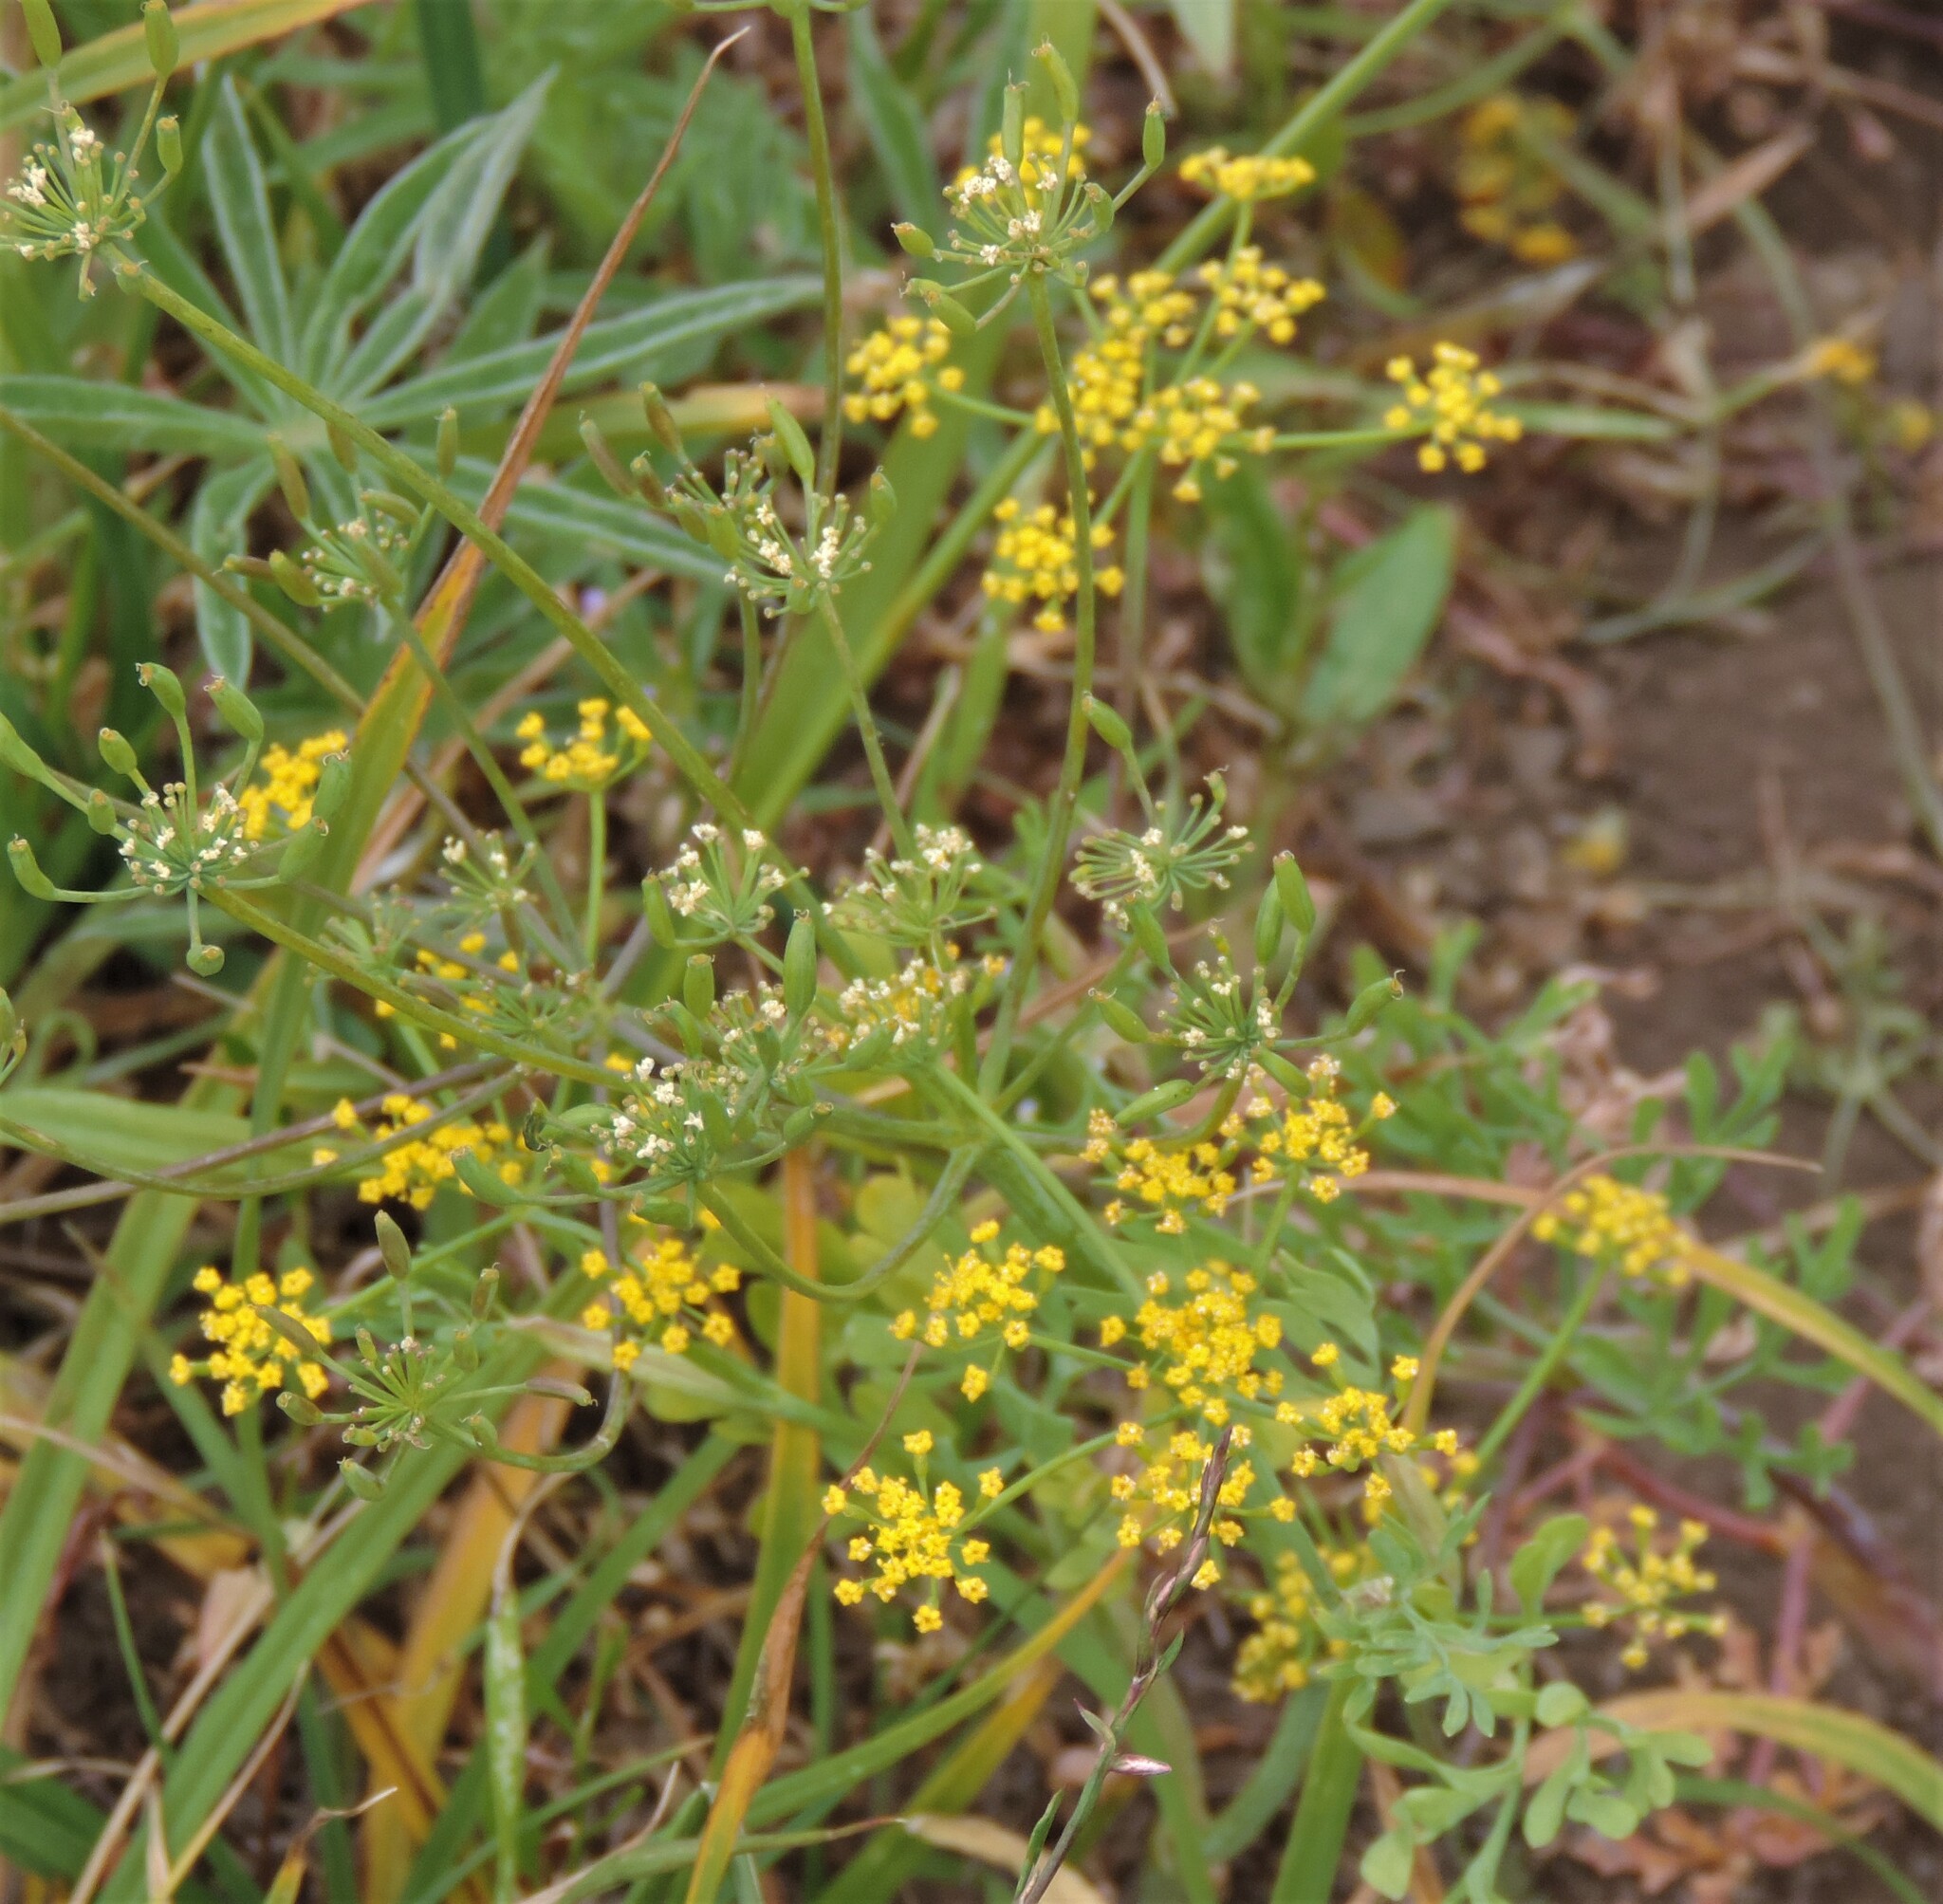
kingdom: Plantae
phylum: Tracheophyta
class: Magnoliopsida
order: Apiales
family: Apiaceae
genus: Lomatium
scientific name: Lomatium ambiguum
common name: Lacy lomatium
